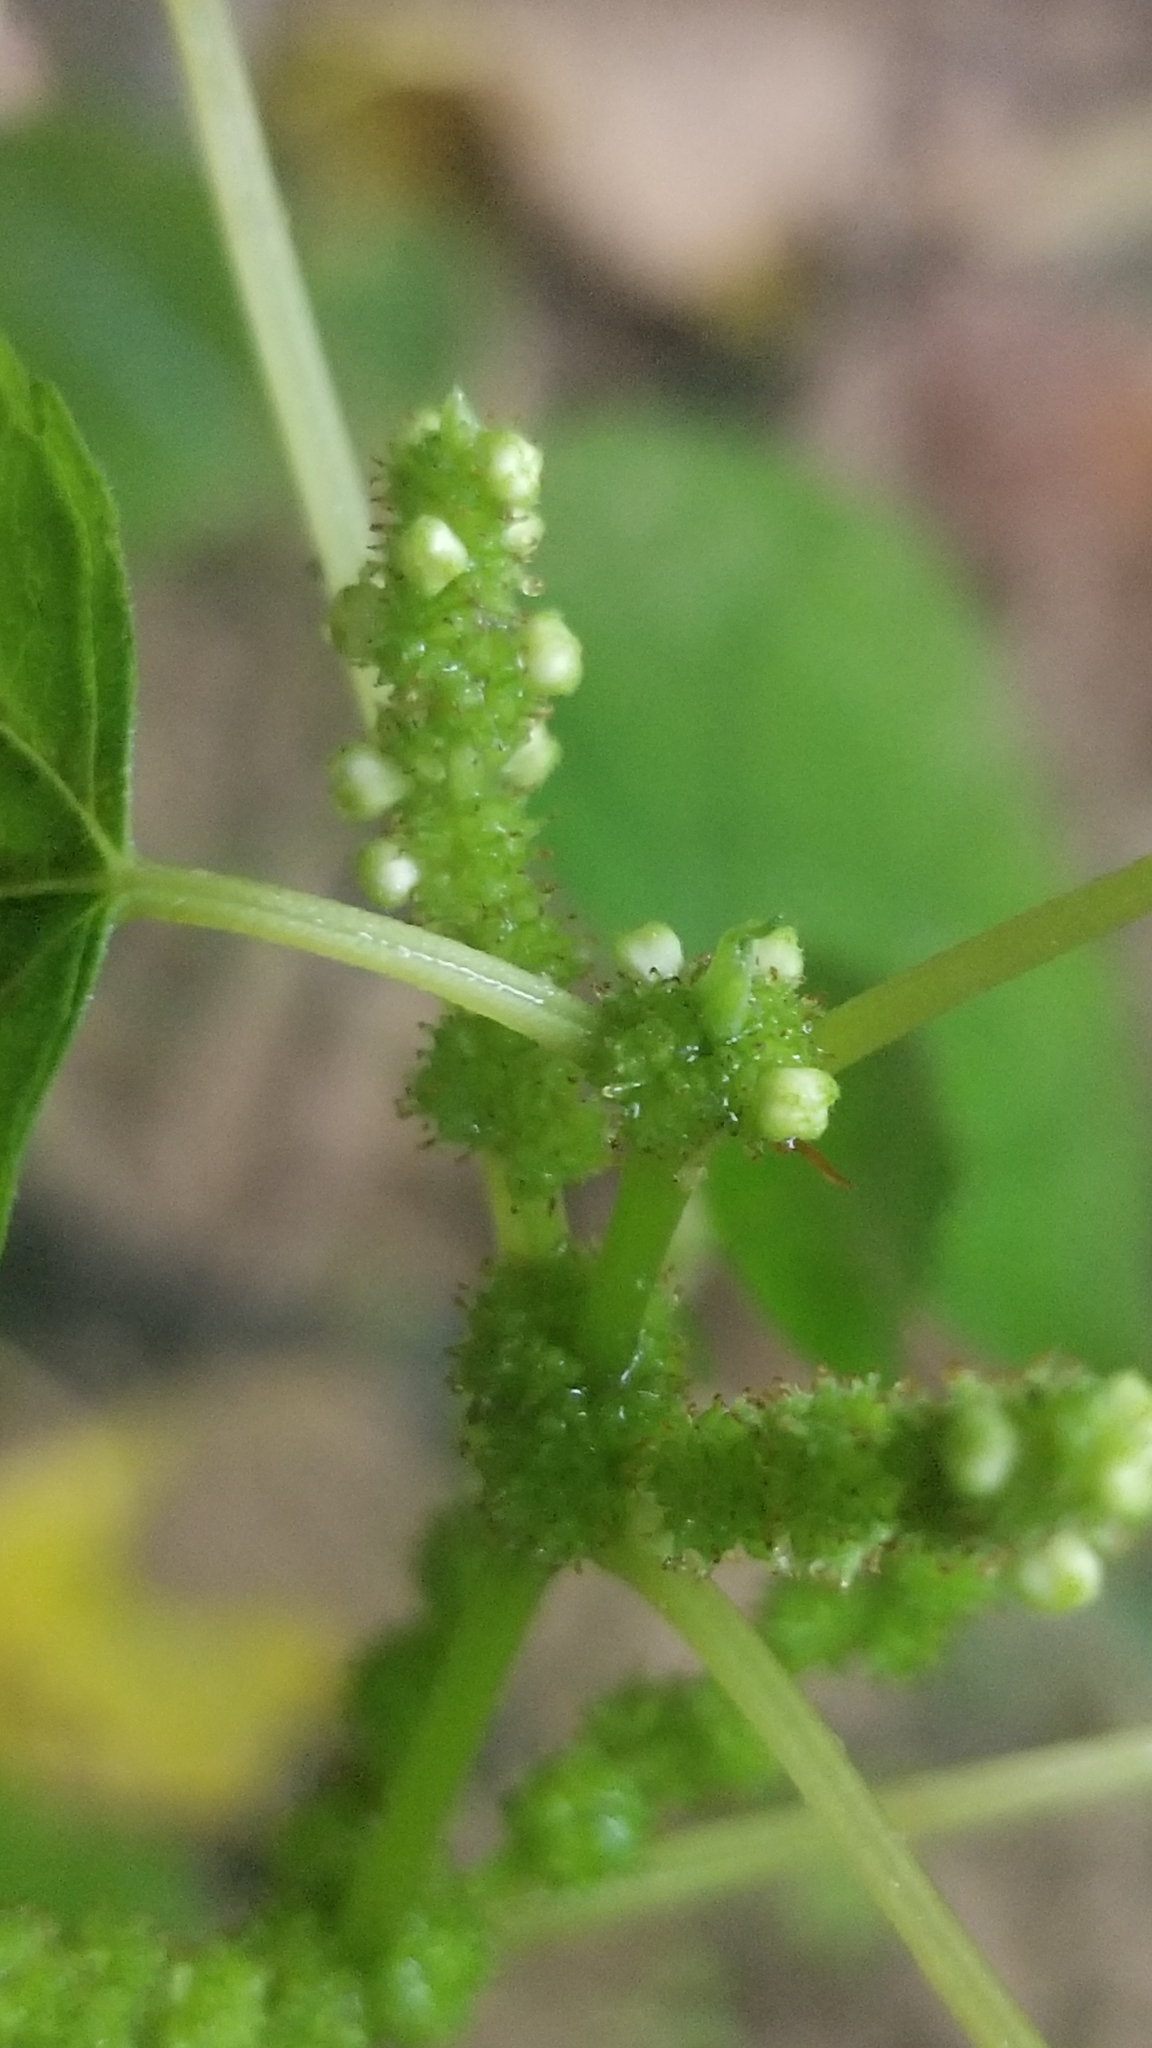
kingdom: Plantae
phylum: Tracheophyta
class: Magnoliopsida
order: Rosales
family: Urticaceae
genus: Boehmeria
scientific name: Boehmeria cylindrica
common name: Bog-hemp
